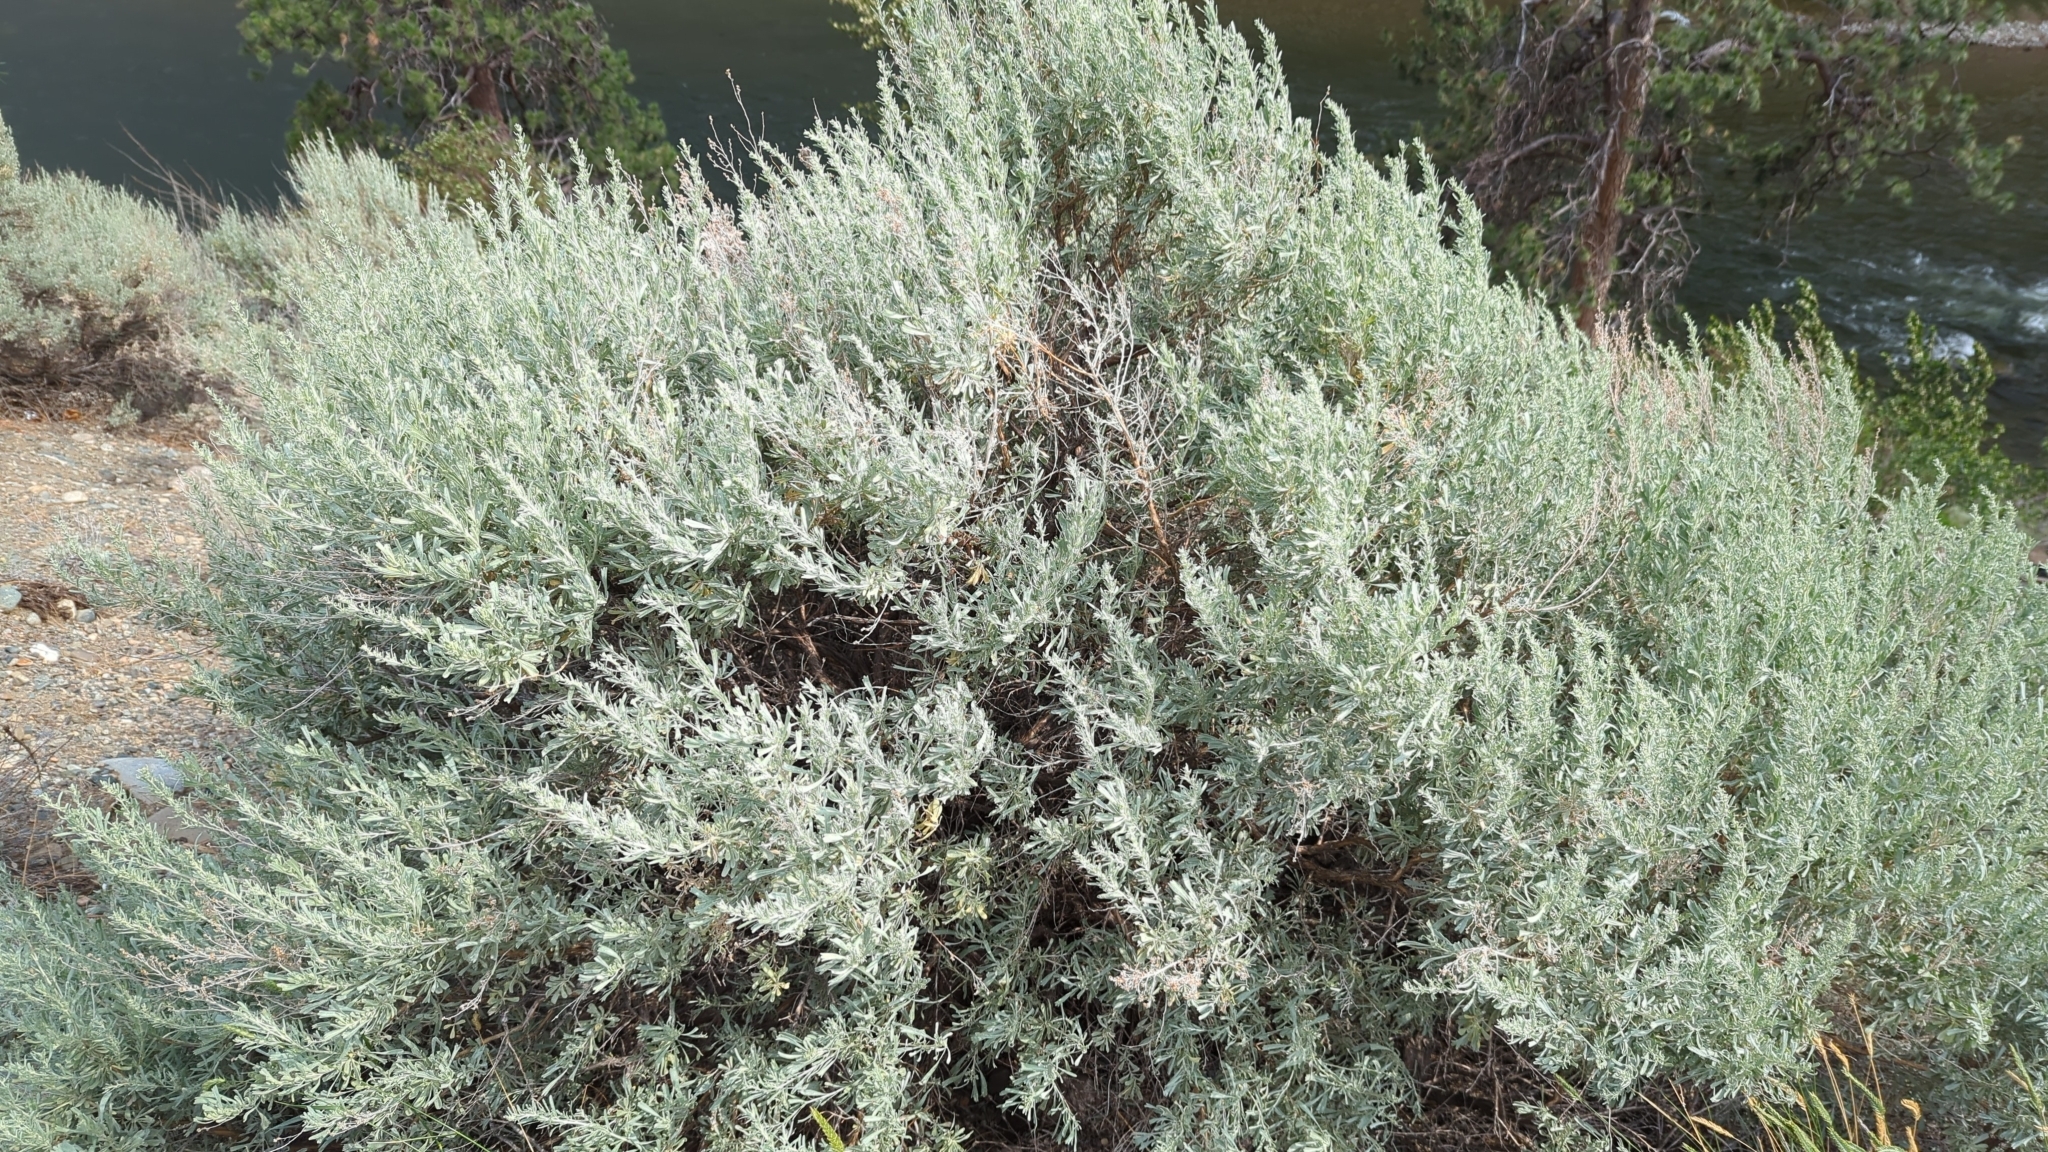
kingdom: Plantae
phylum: Tracheophyta
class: Magnoliopsida
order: Asterales
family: Asteraceae
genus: Artemisia
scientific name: Artemisia tridentata
